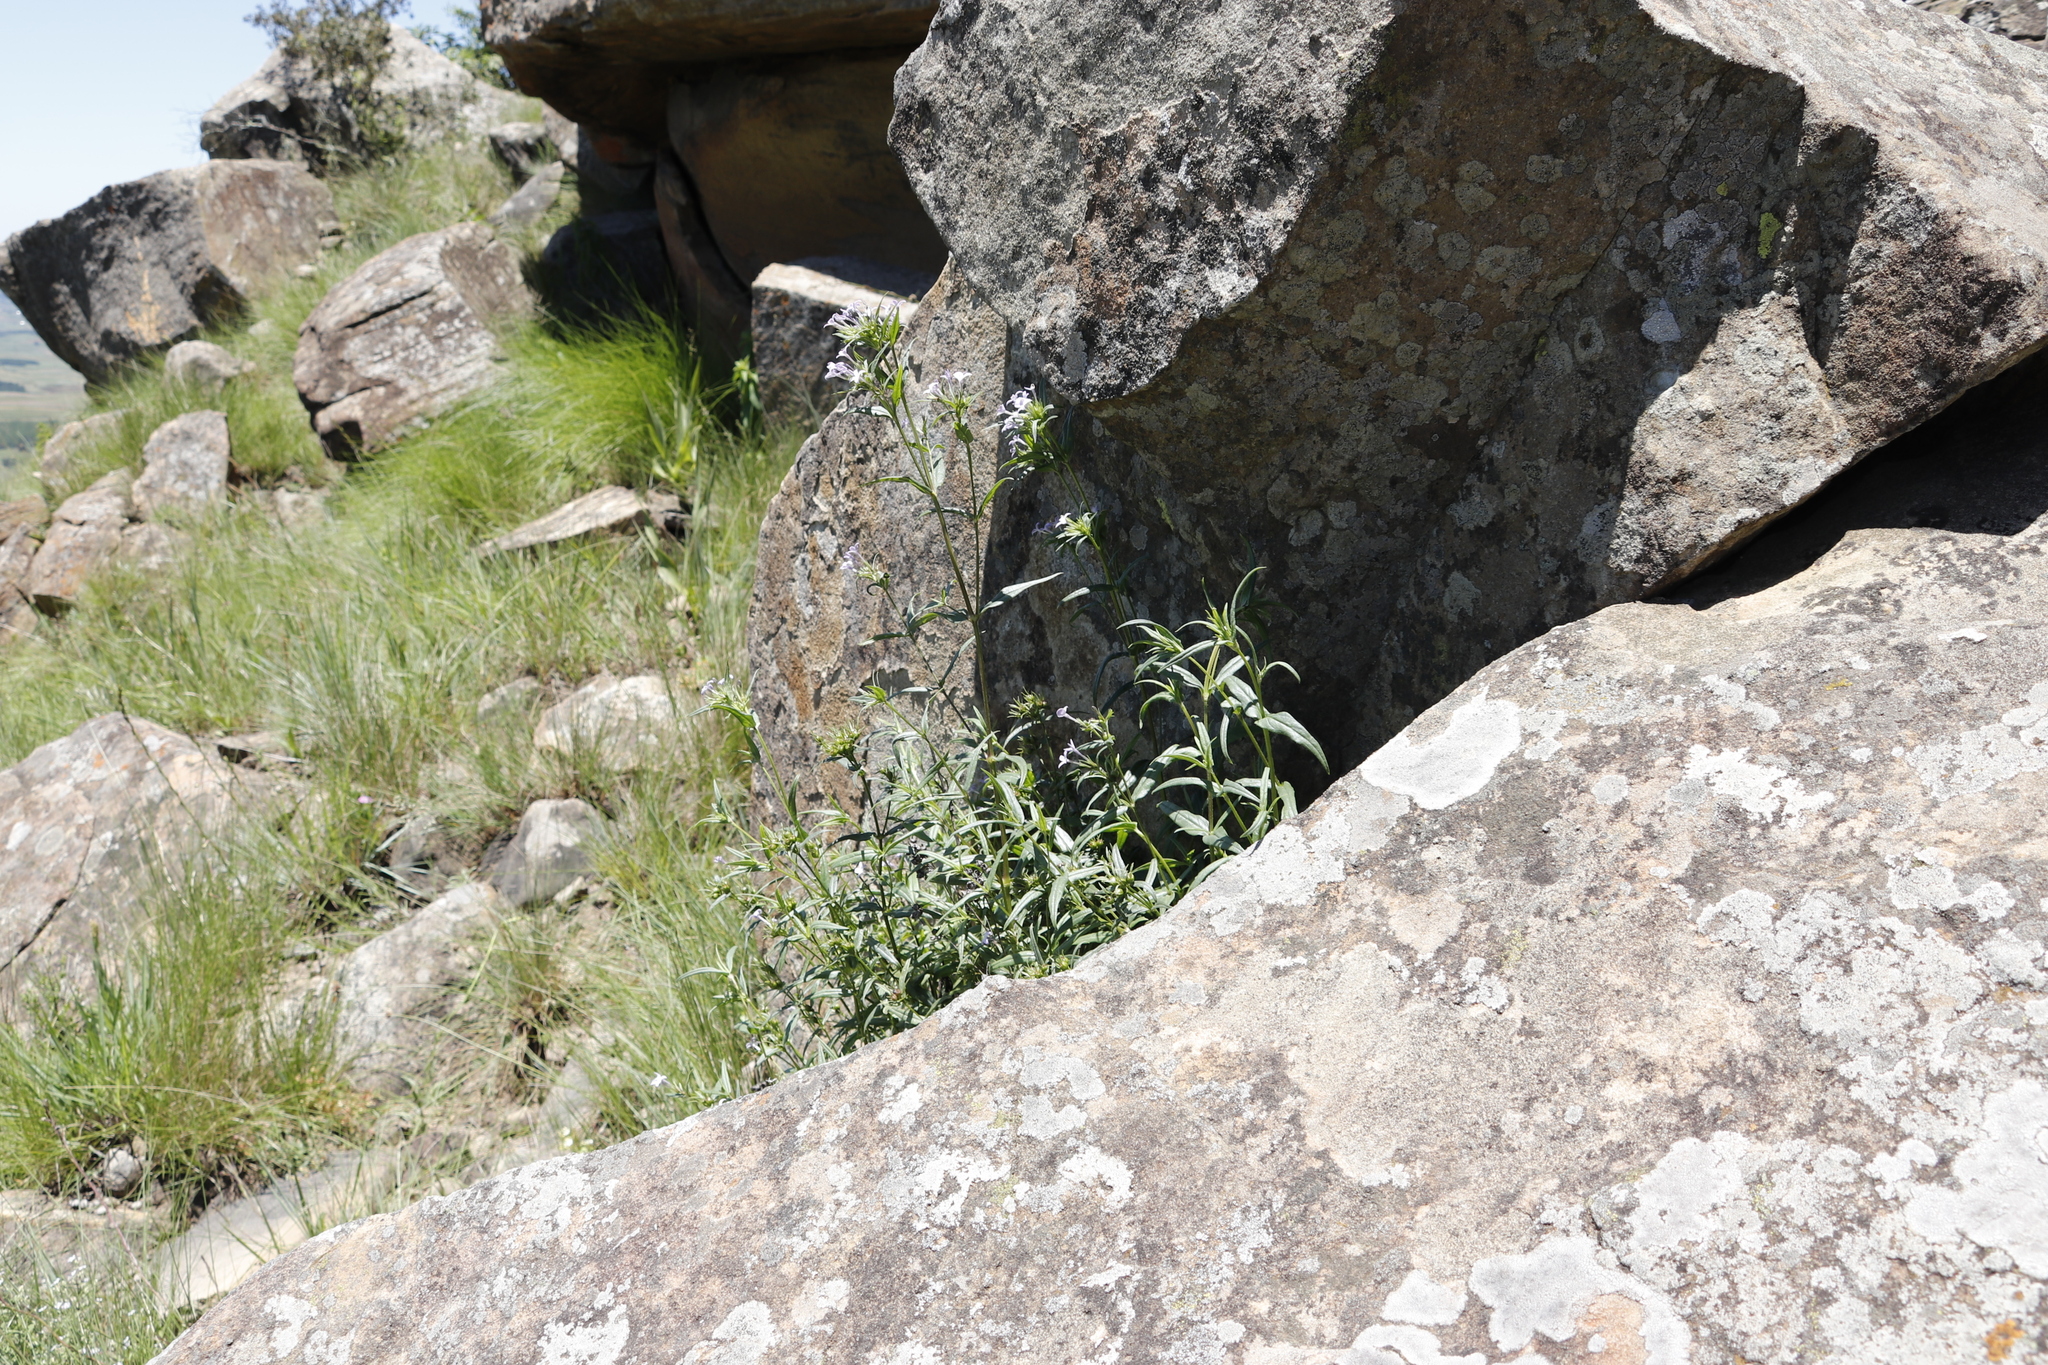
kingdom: Plantae
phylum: Tracheophyta
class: Magnoliopsida
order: Gentianales
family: Rubiaceae
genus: Conostomium
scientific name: Conostomium natalense
